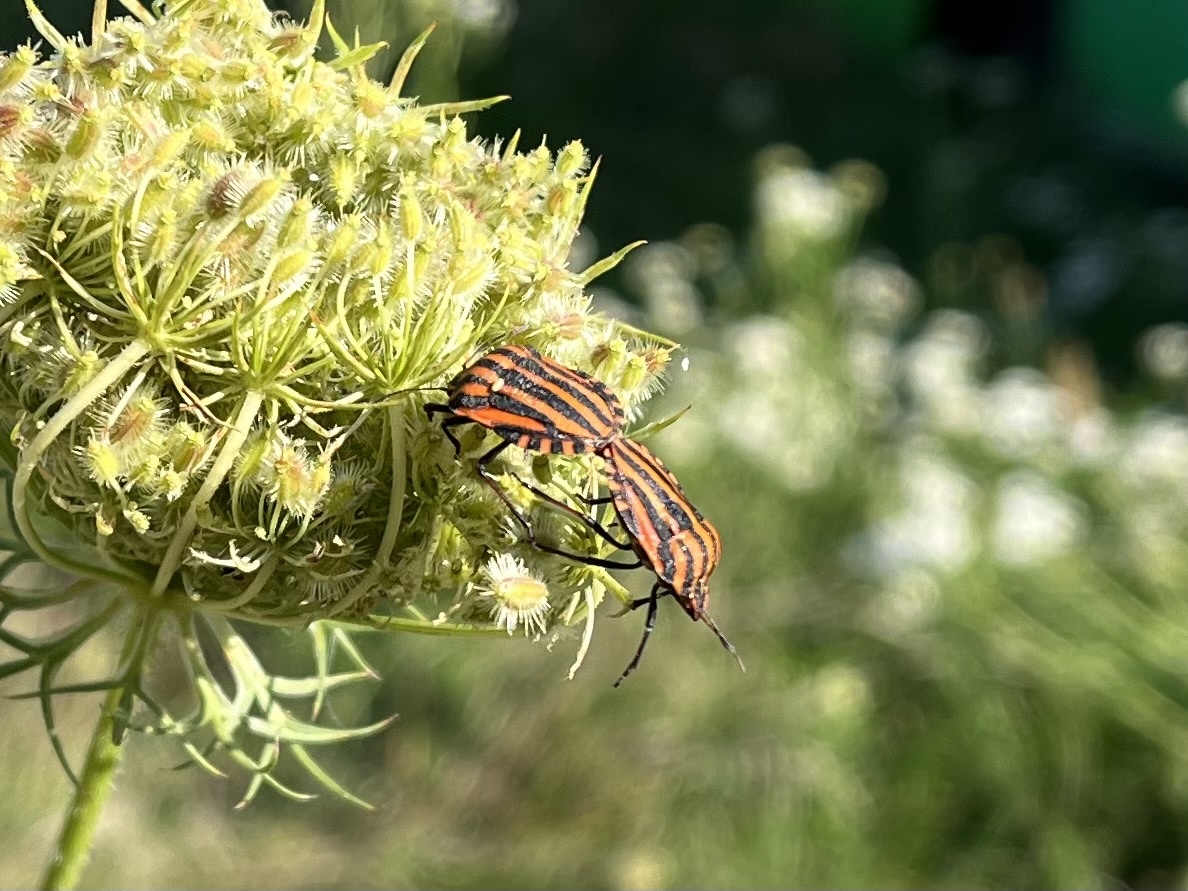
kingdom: Animalia
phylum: Arthropoda
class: Insecta
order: Hemiptera
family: Pentatomidae
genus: Graphosoma
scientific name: Graphosoma italicum
